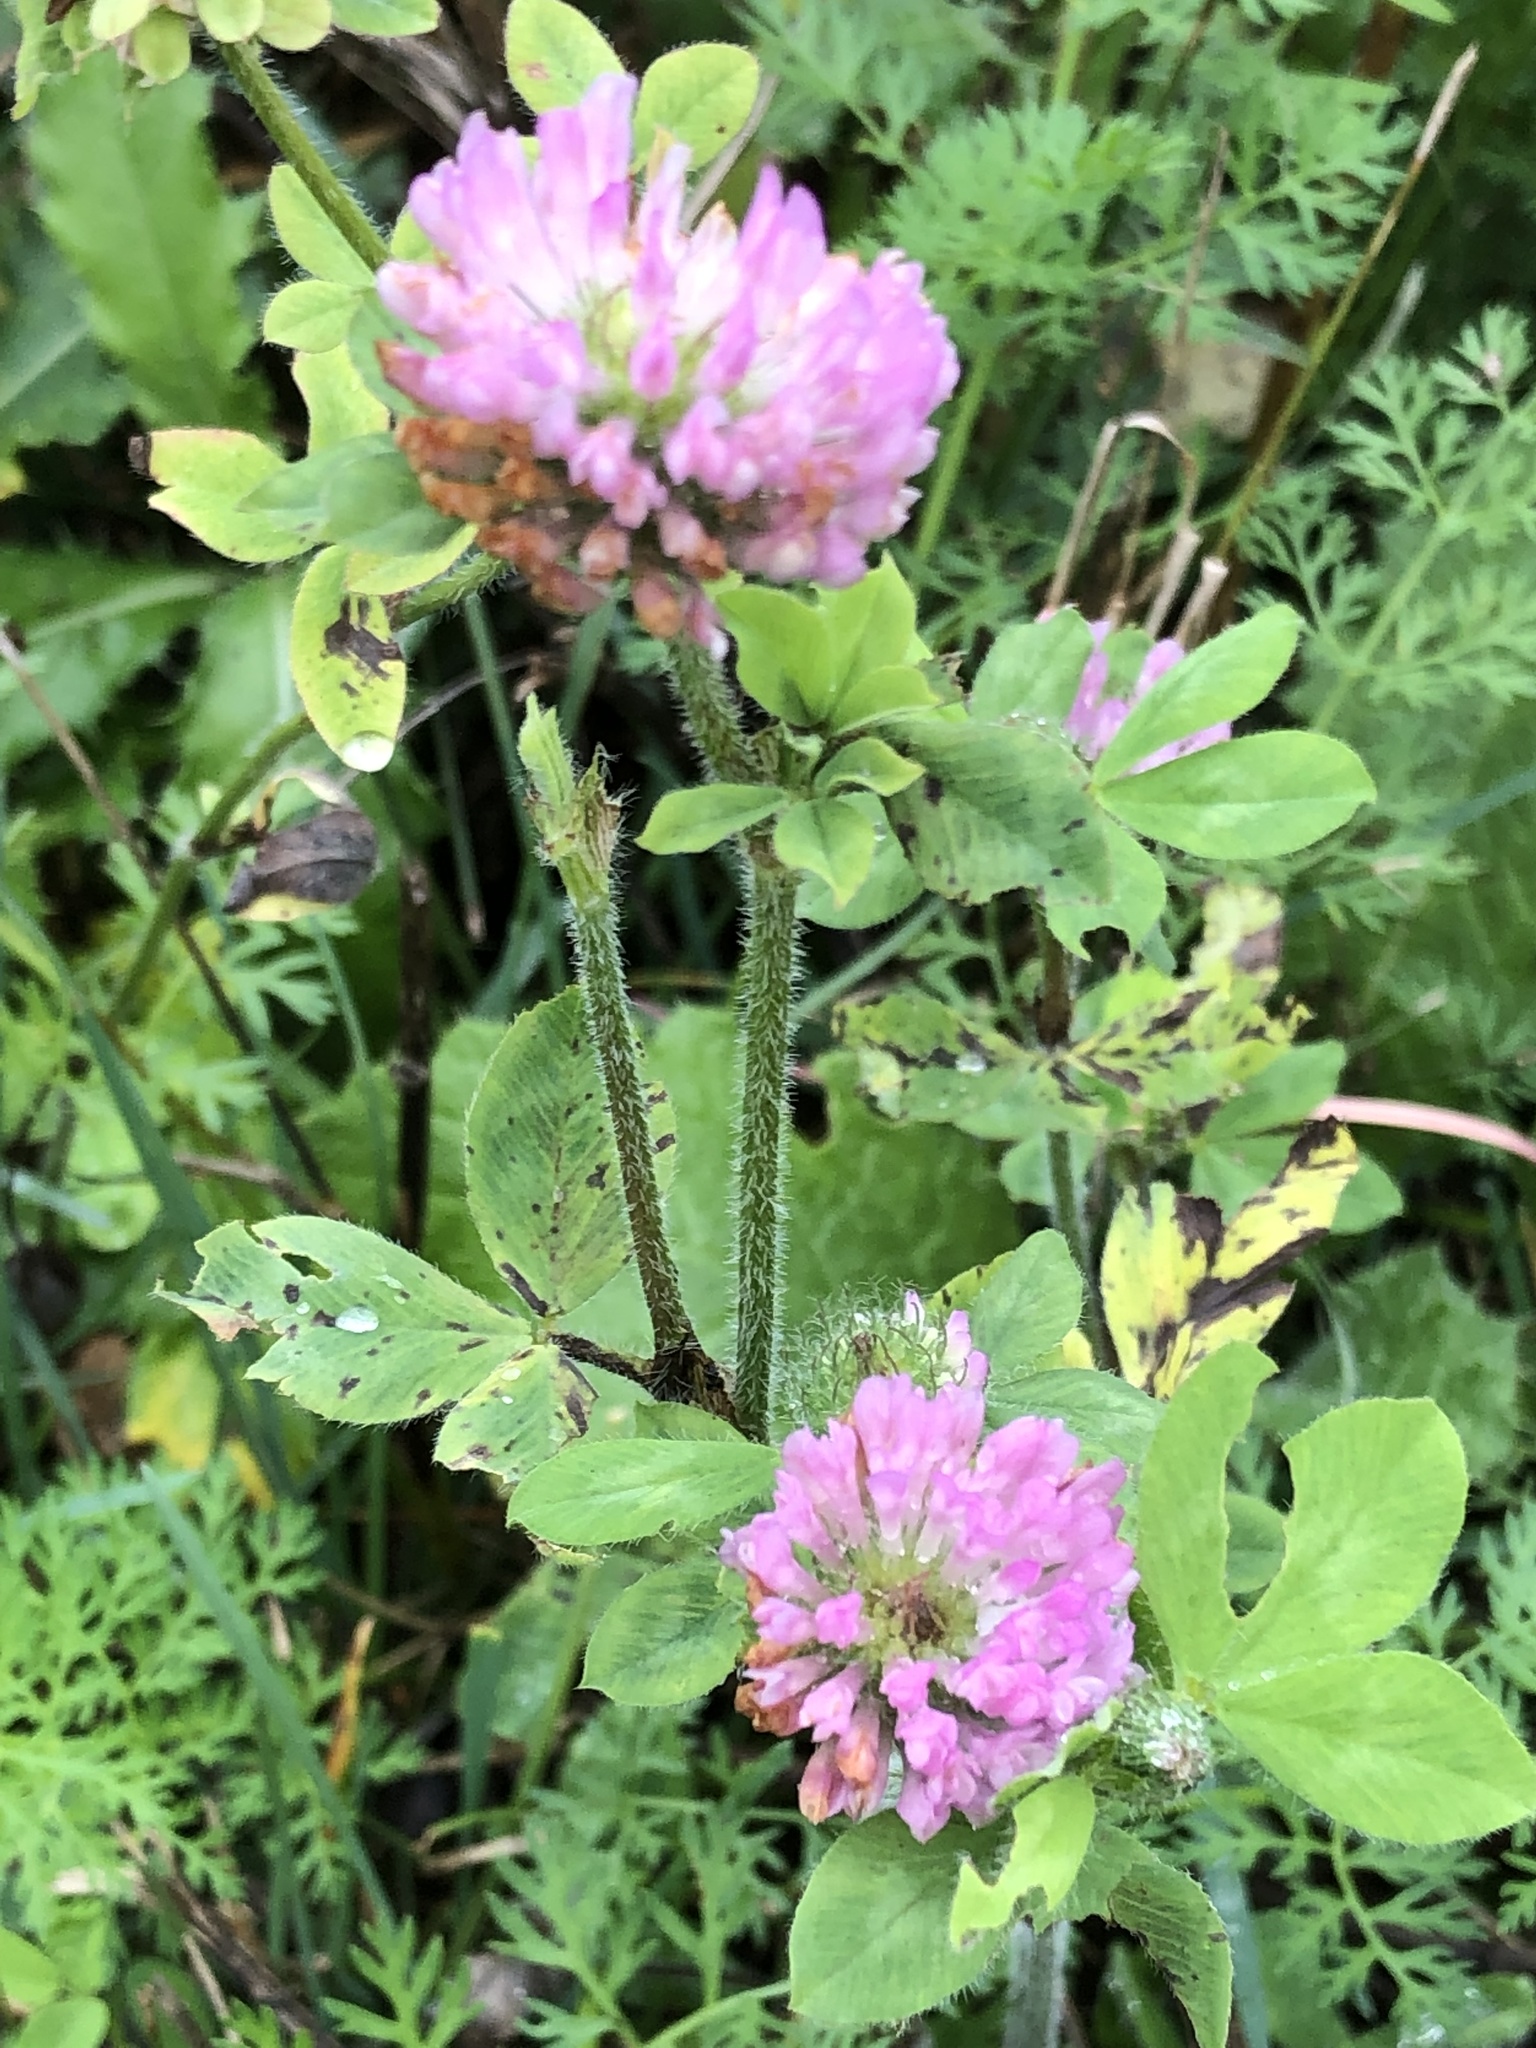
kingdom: Plantae
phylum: Tracheophyta
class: Magnoliopsida
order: Fabales
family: Fabaceae
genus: Trifolium
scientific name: Trifolium pratense
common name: Red clover
